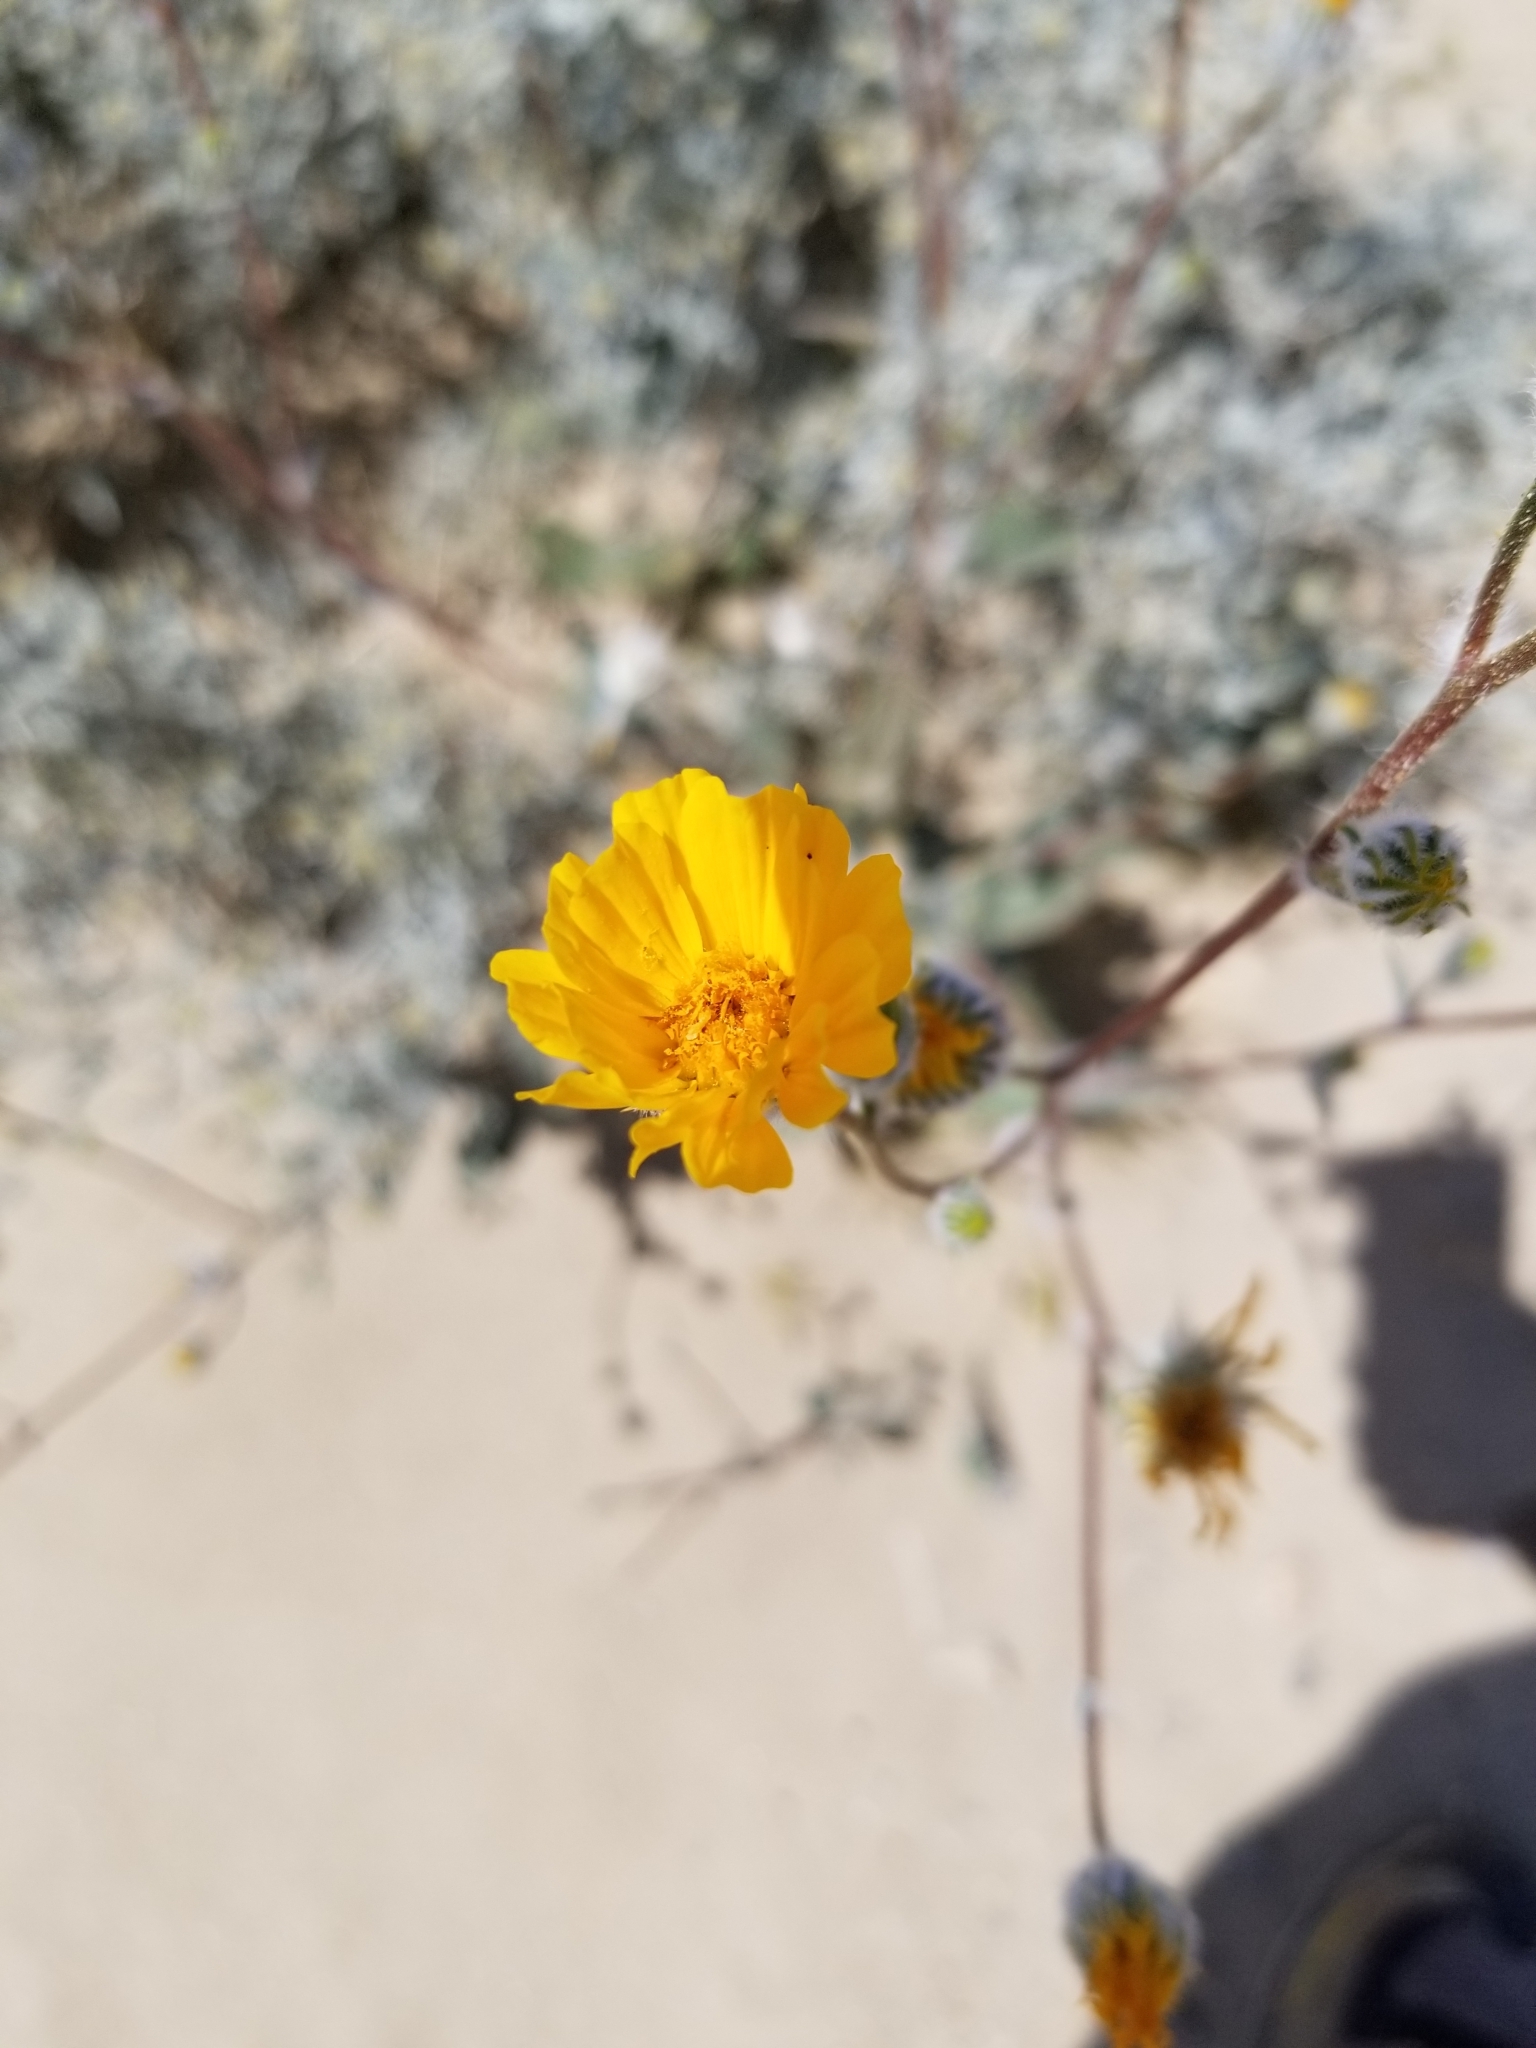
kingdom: Plantae
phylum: Tracheophyta
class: Magnoliopsida
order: Asterales
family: Asteraceae
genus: Geraea
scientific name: Geraea canescens
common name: Desert-gold
